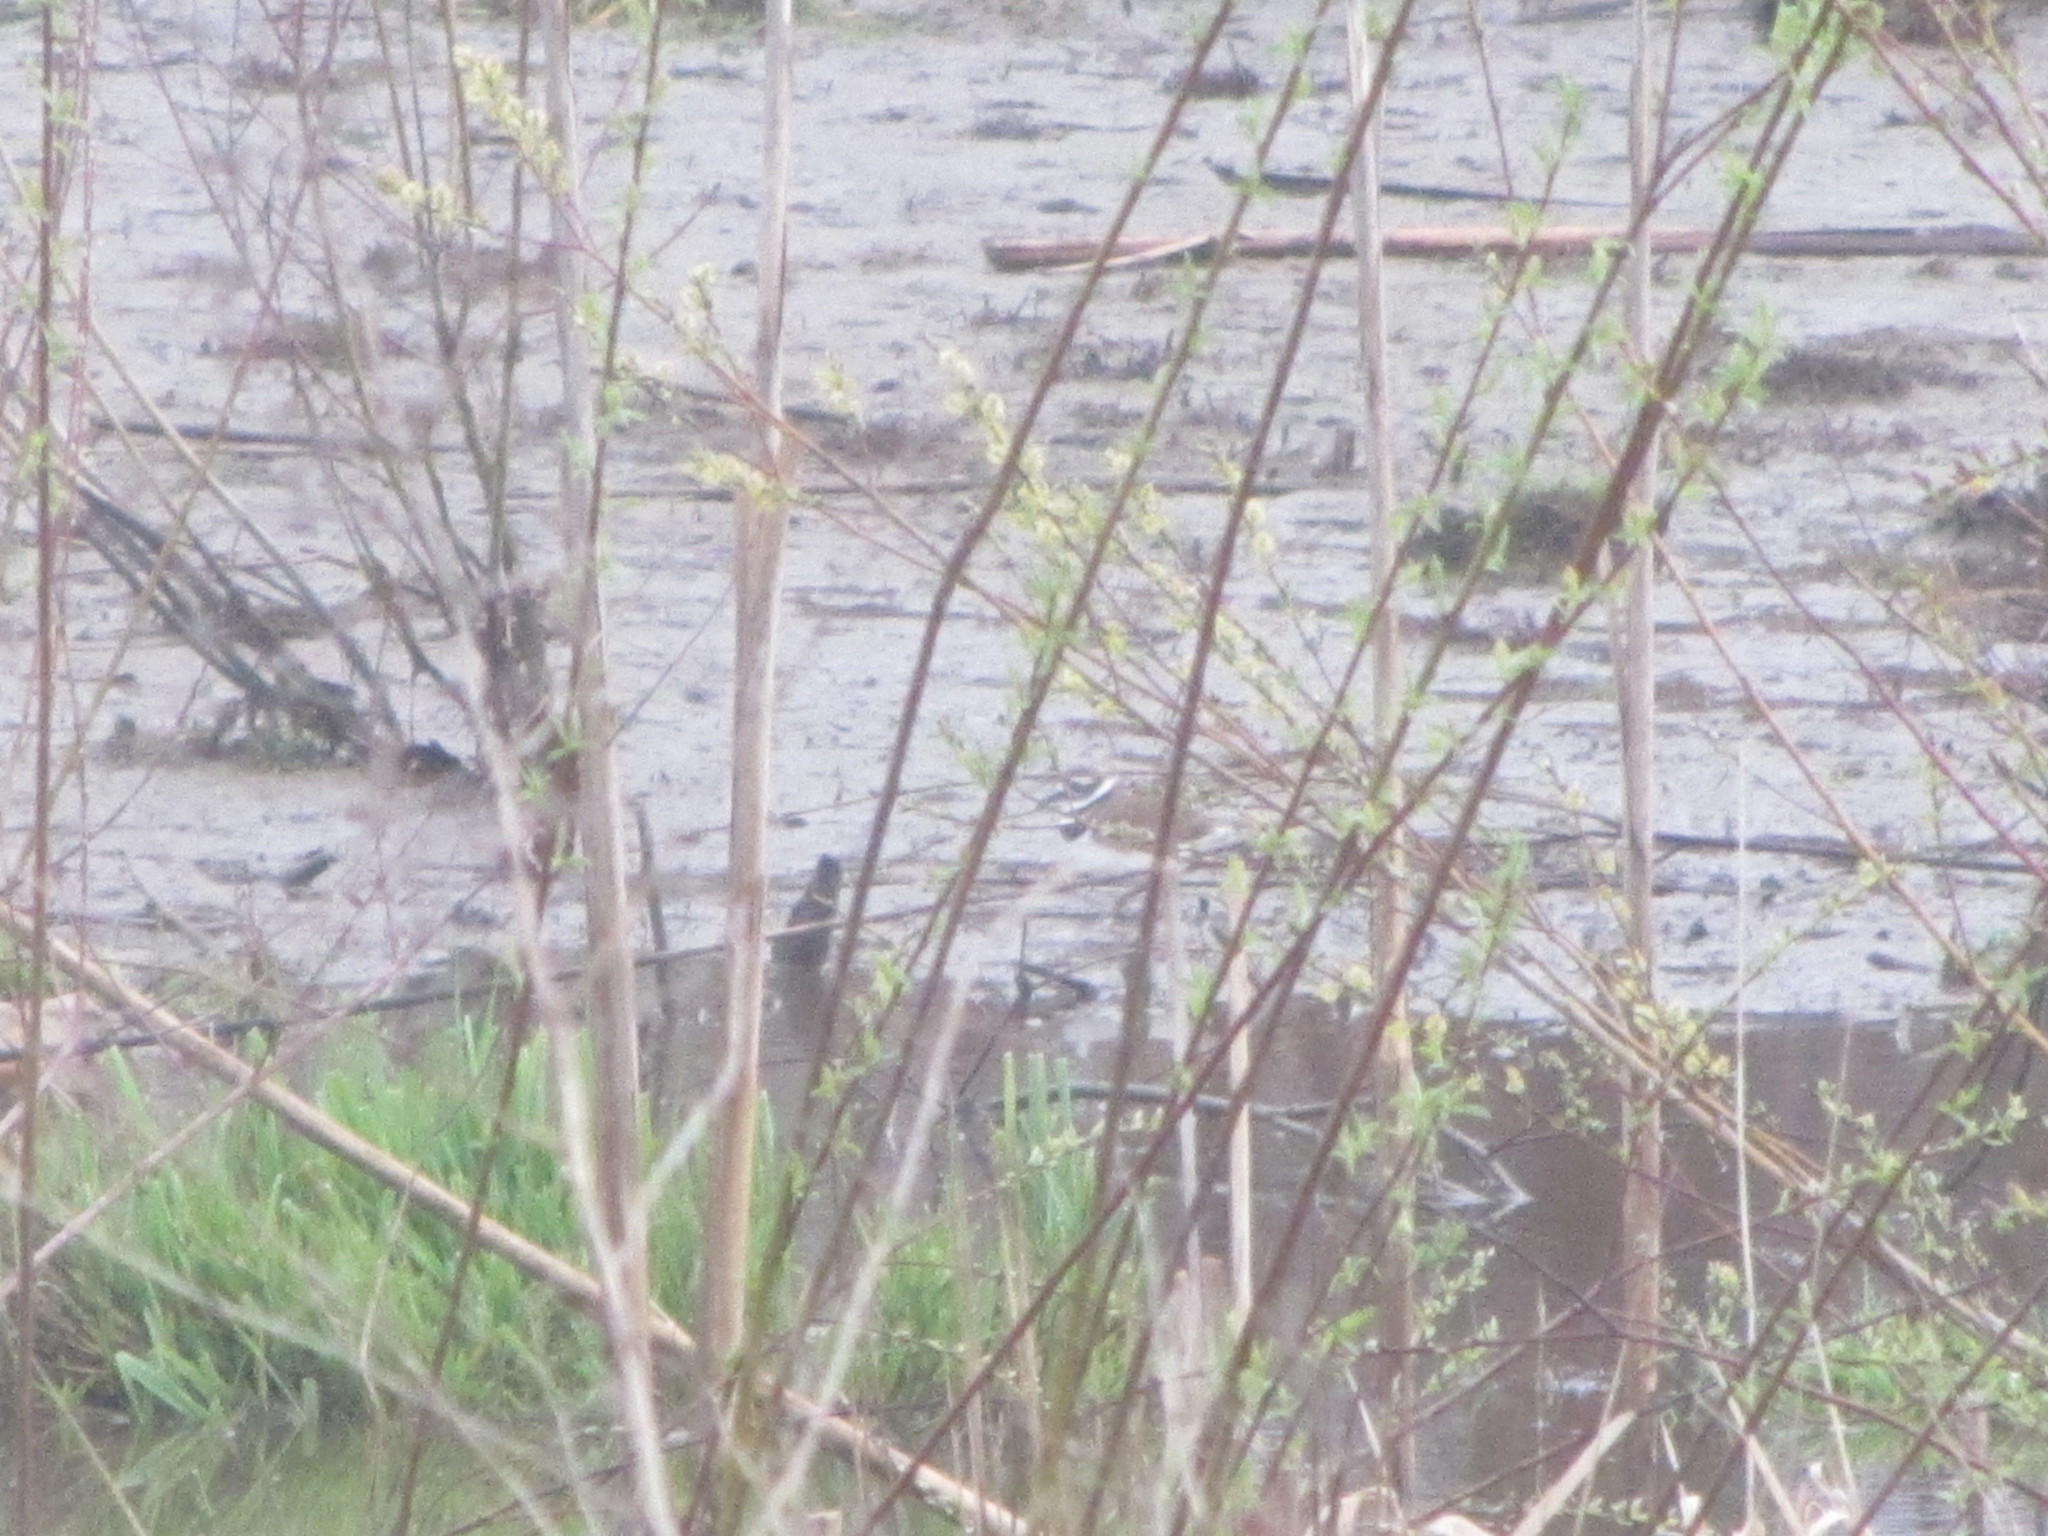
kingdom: Animalia
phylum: Chordata
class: Aves
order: Charadriiformes
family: Charadriidae
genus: Charadrius
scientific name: Charadrius vociferus
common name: Killdeer
